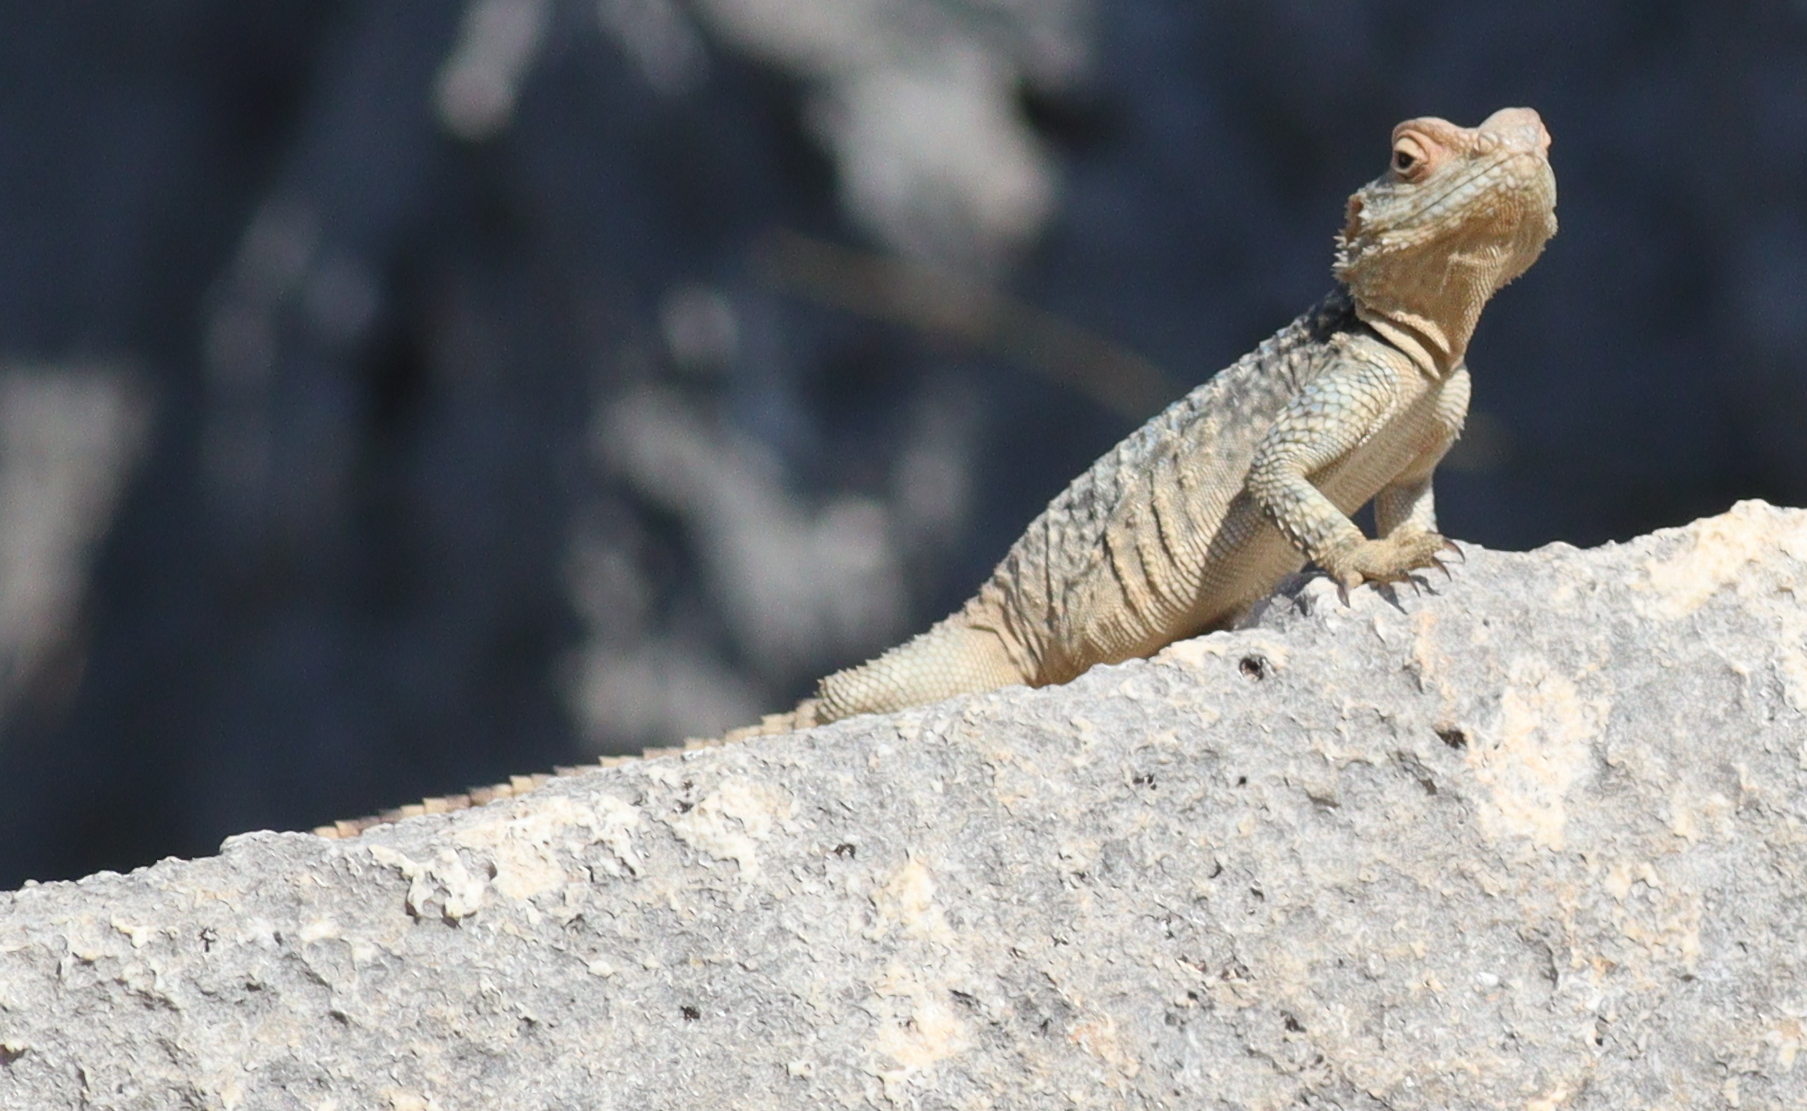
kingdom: Animalia
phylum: Chordata
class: Squamata
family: Agamidae
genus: Stellagama
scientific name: Stellagama stellio
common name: Starred agama
